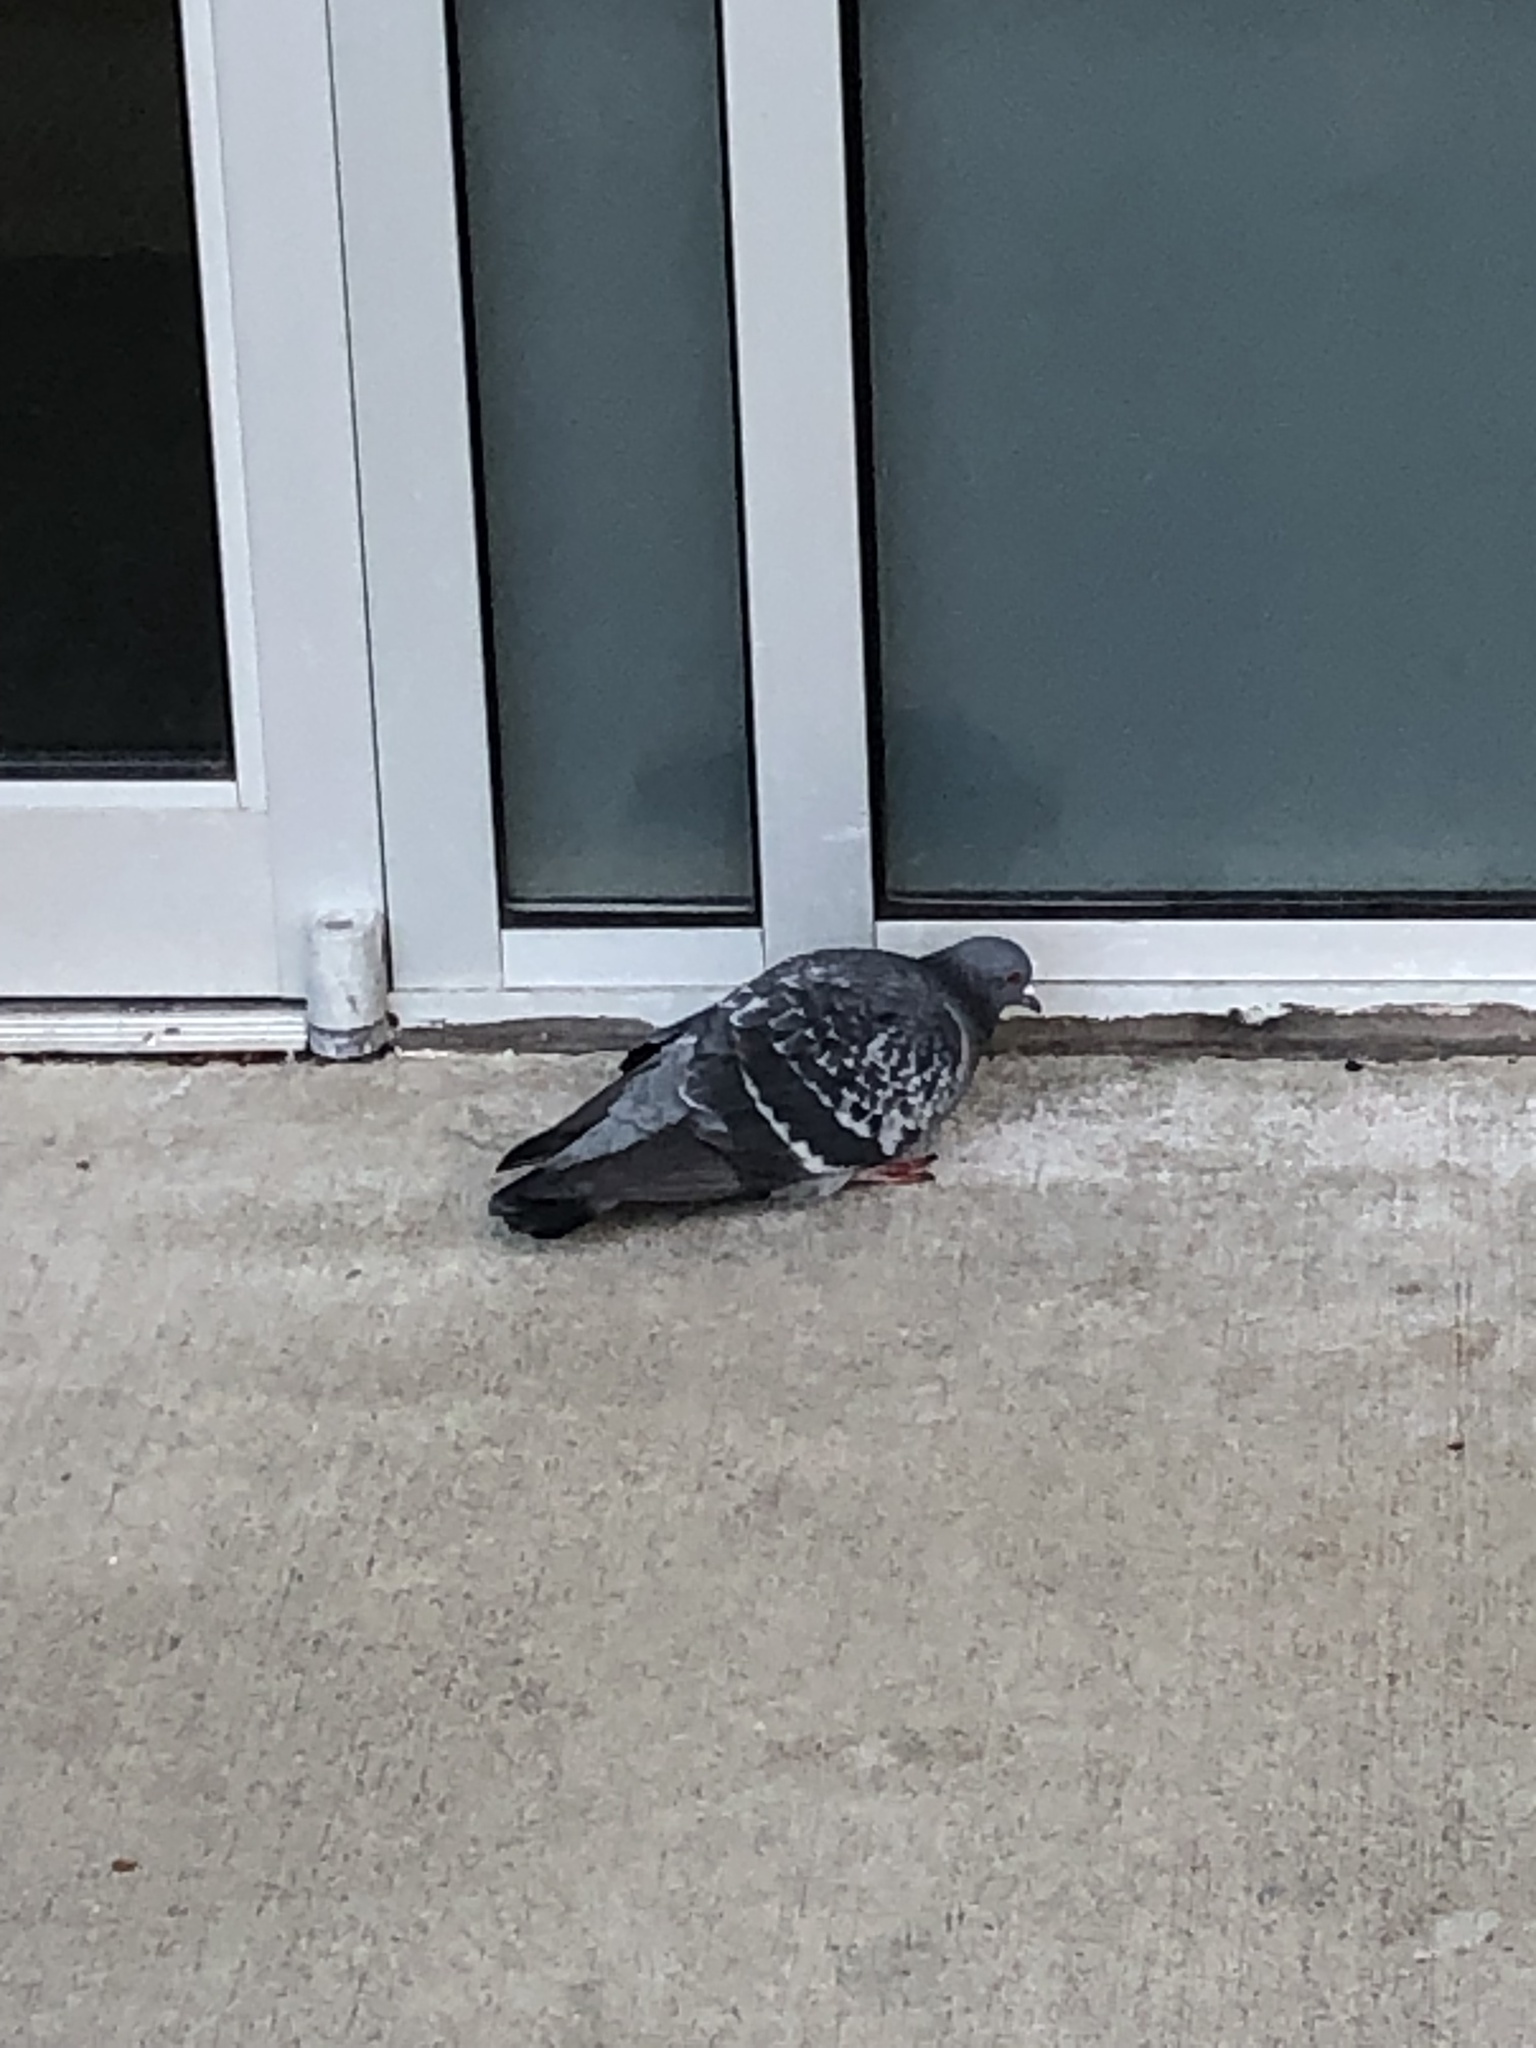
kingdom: Animalia
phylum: Chordata
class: Aves
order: Columbiformes
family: Columbidae
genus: Columba
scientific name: Columba livia
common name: Rock pigeon
